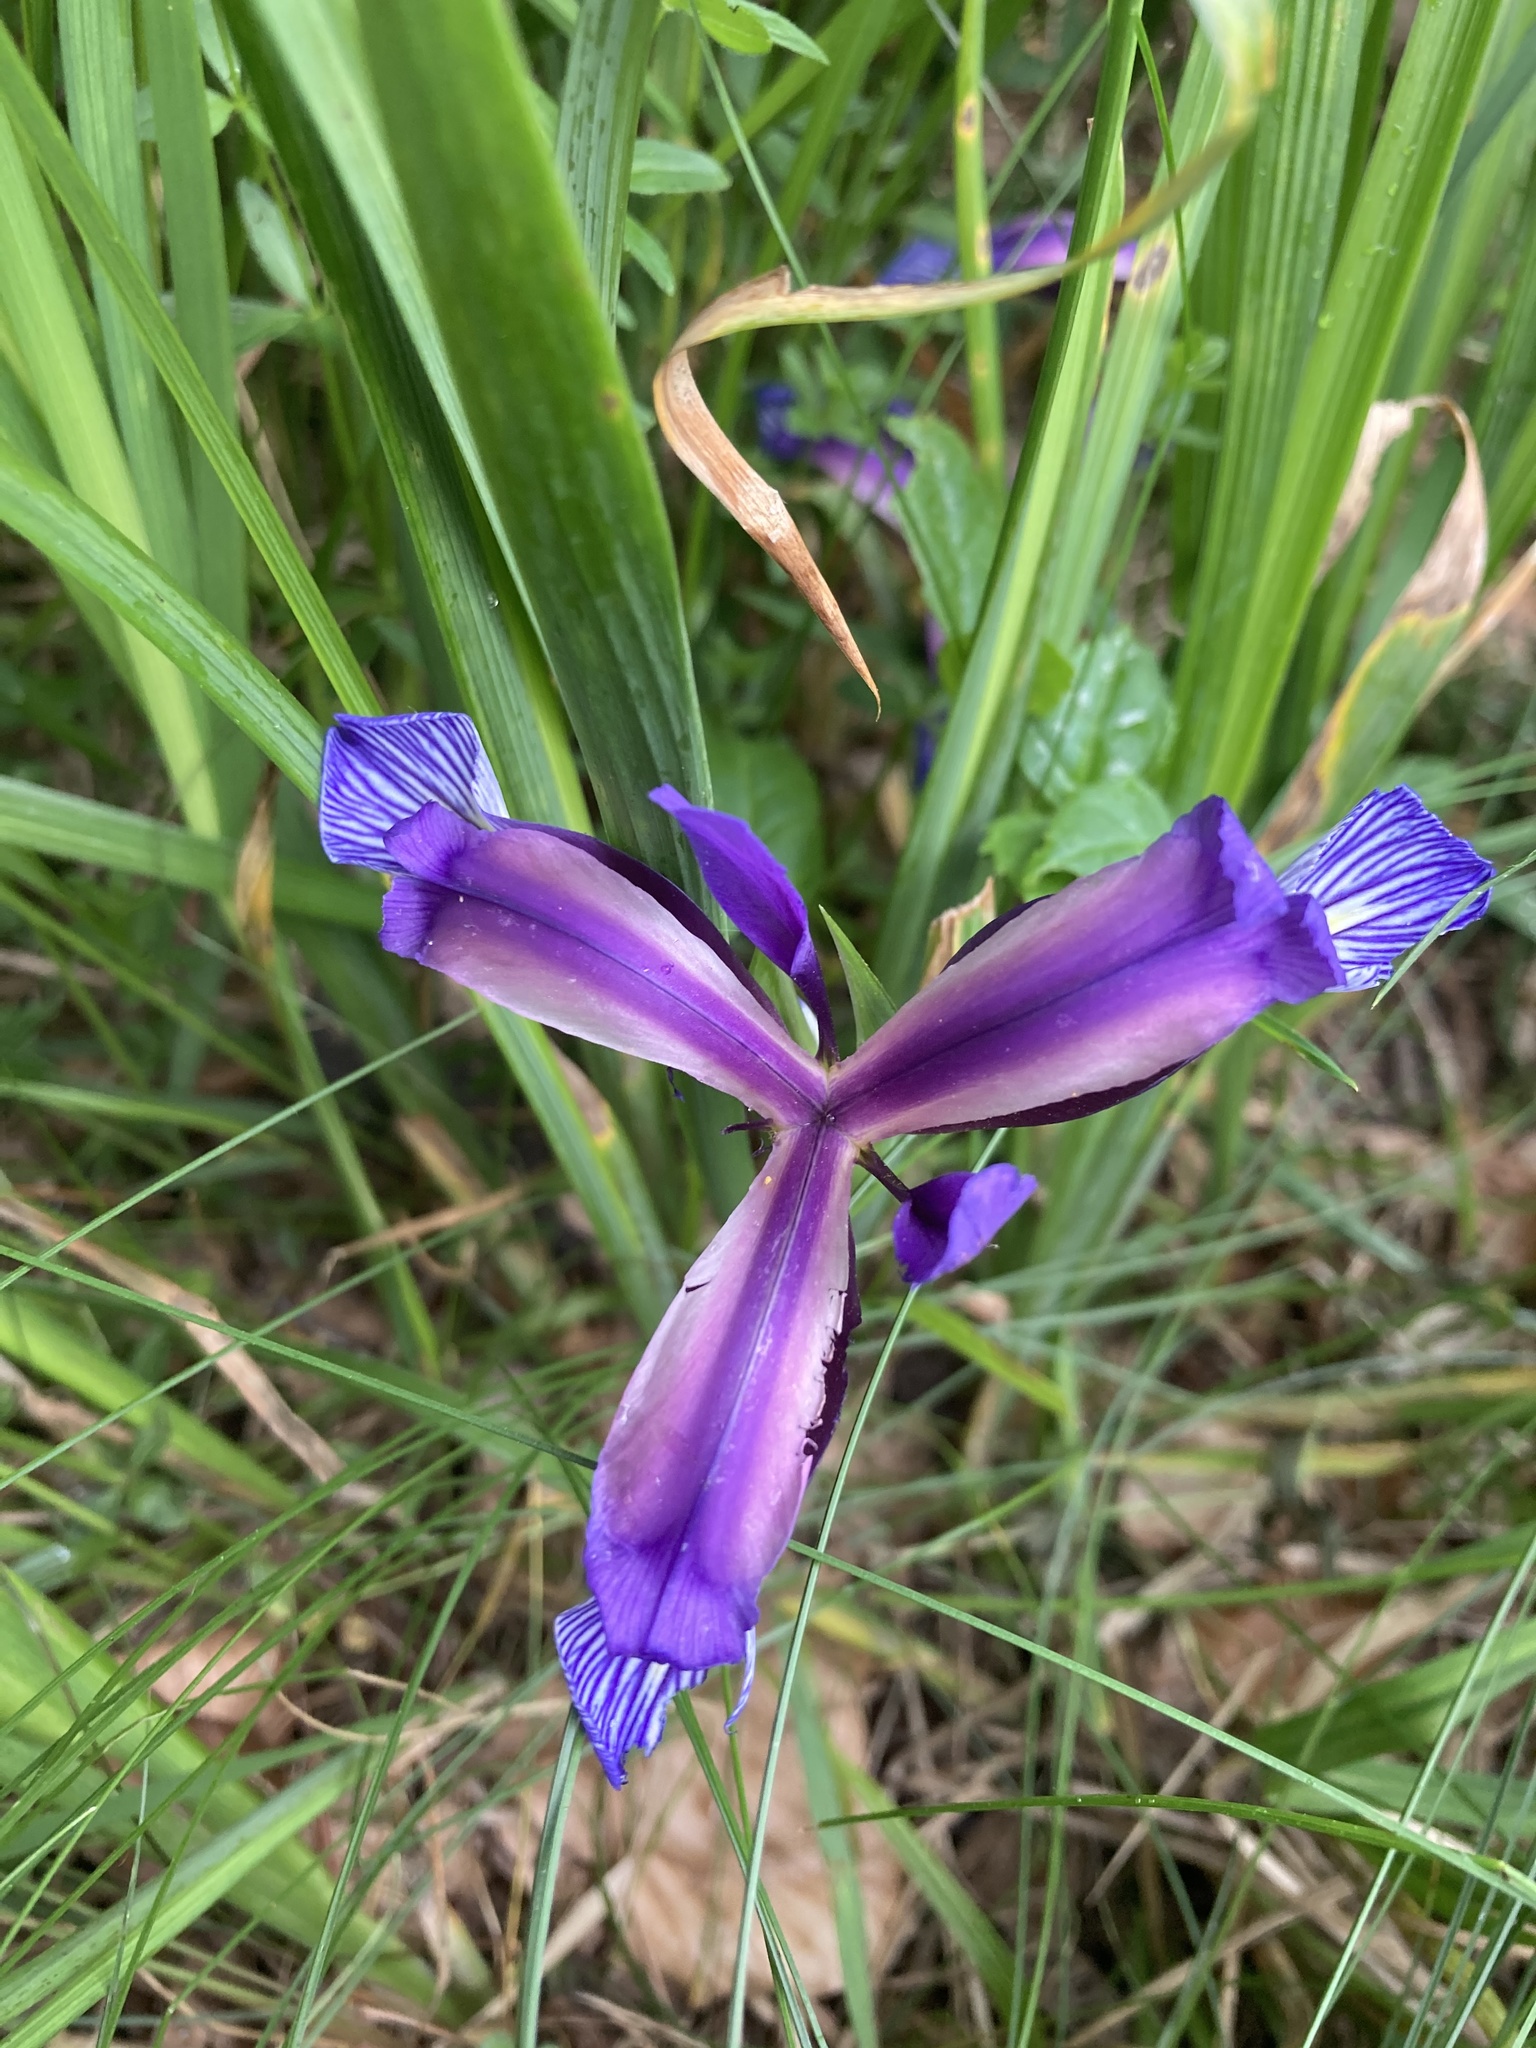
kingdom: Plantae
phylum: Tracheophyta
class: Liliopsida
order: Asparagales
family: Iridaceae
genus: Iris
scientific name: Iris graminea
